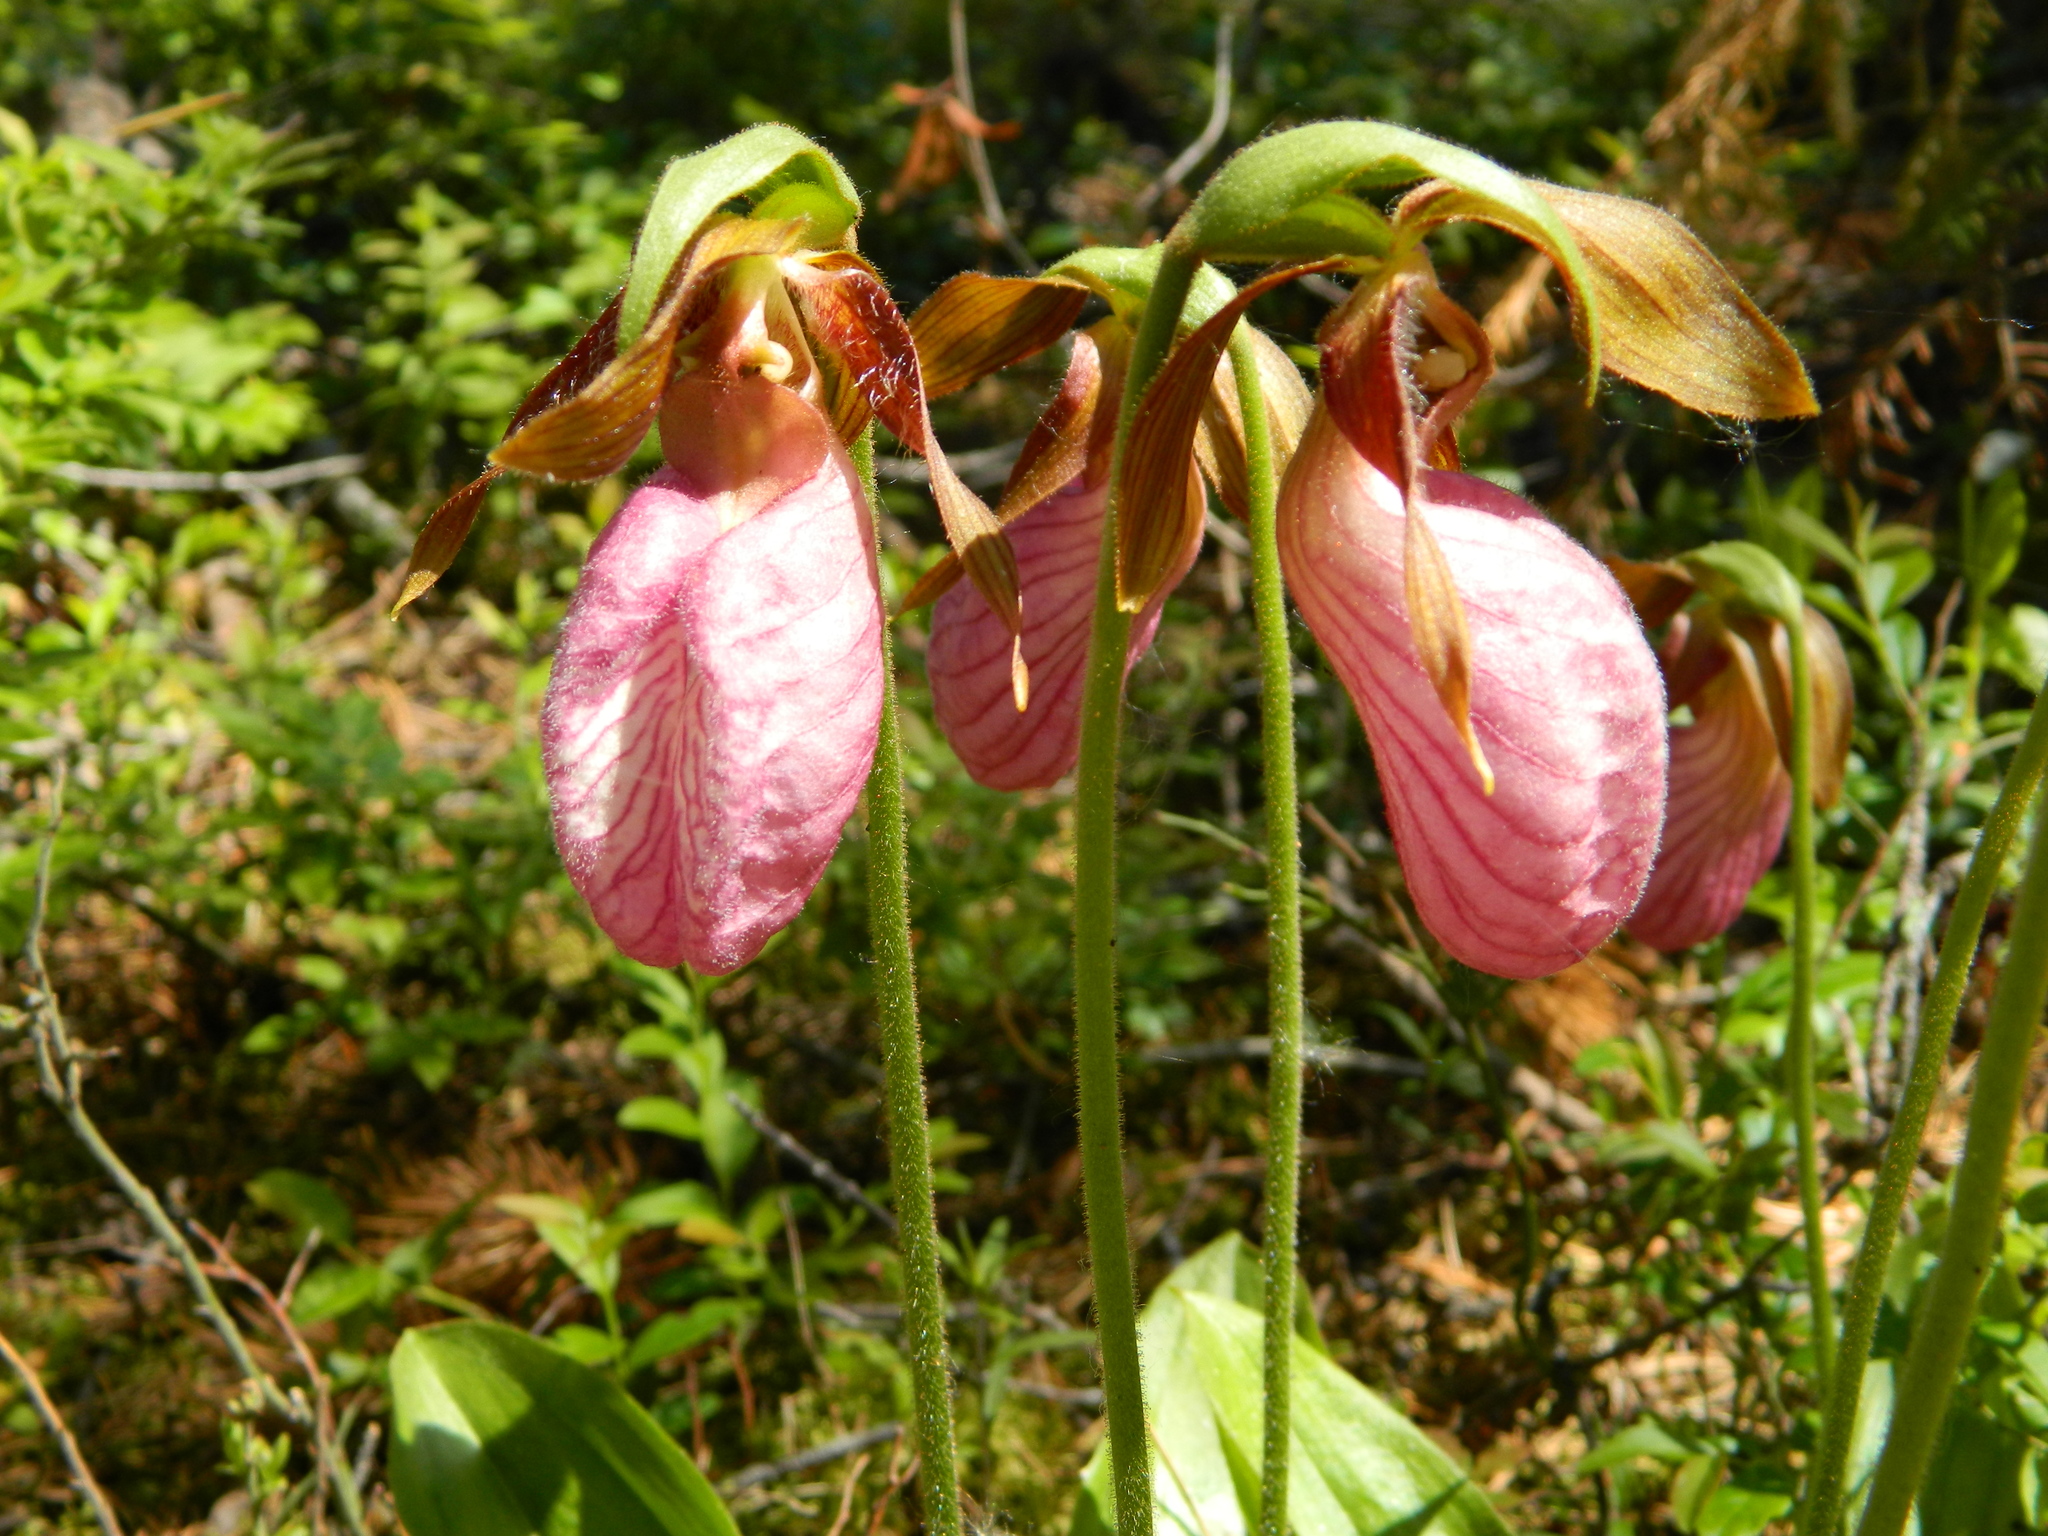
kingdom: Plantae
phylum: Tracheophyta
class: Liliopsida
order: Asparagales
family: Orchidaceae
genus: Cypripedium
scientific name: Cypripedium acaule
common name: Pink lady's-slipper
